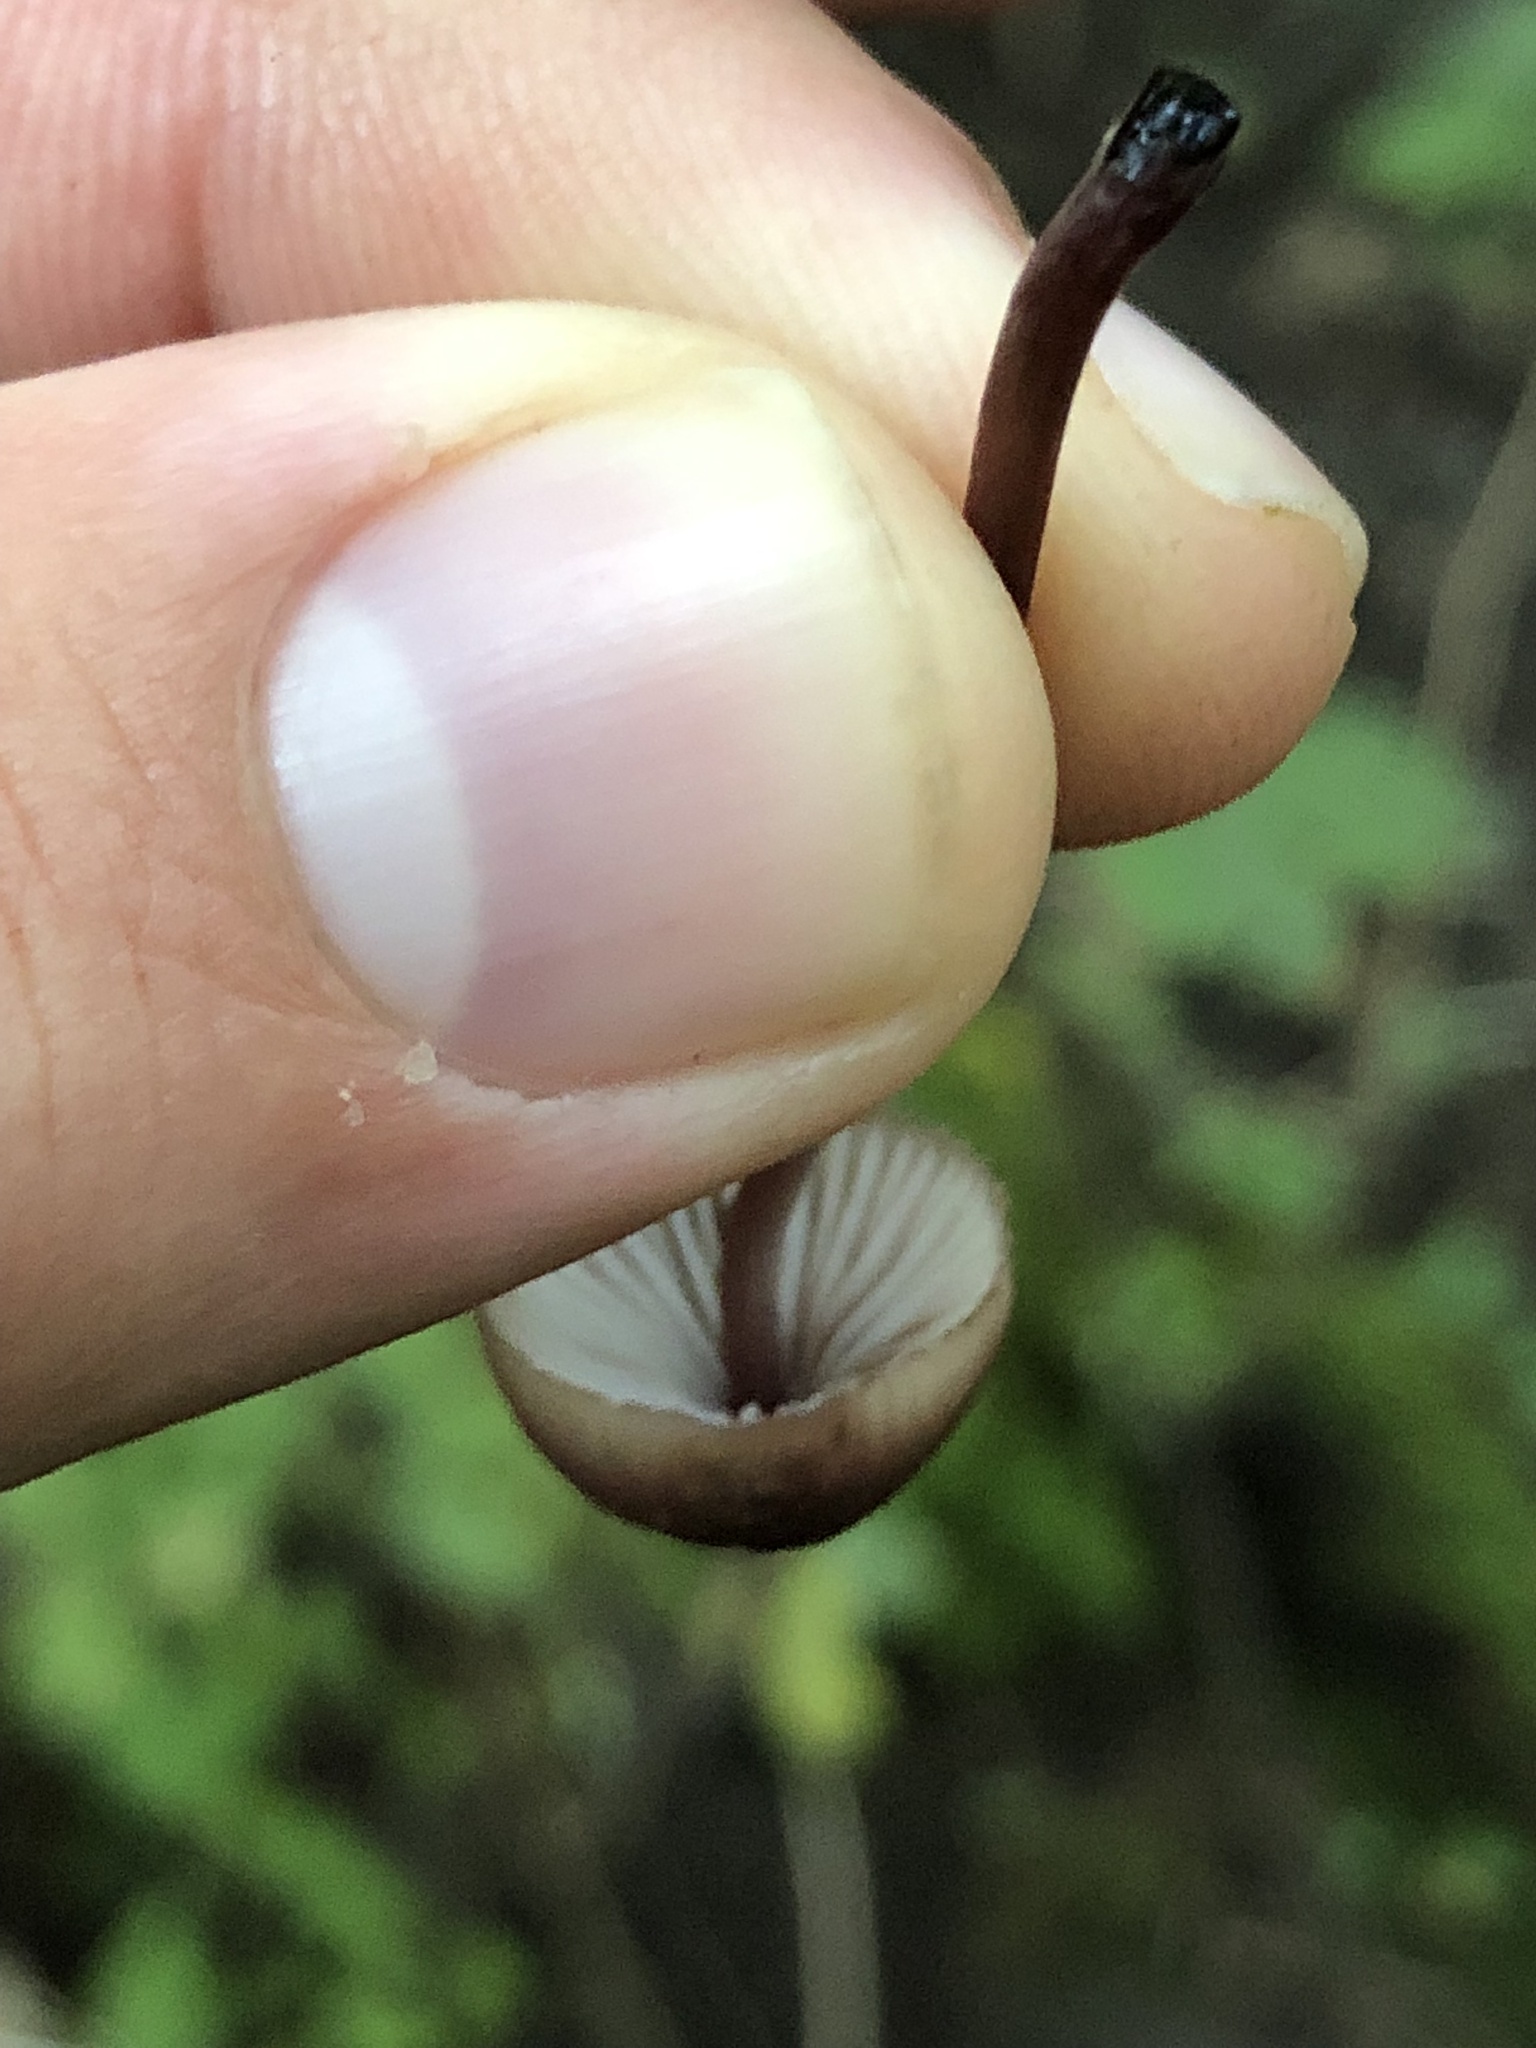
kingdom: Fungi
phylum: Basidiomycota
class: Agaricomycetes
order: Agaricales
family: Mycenaceae
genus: Mycena
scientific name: Mycena haematopus
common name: Burgundydrop bonnet
